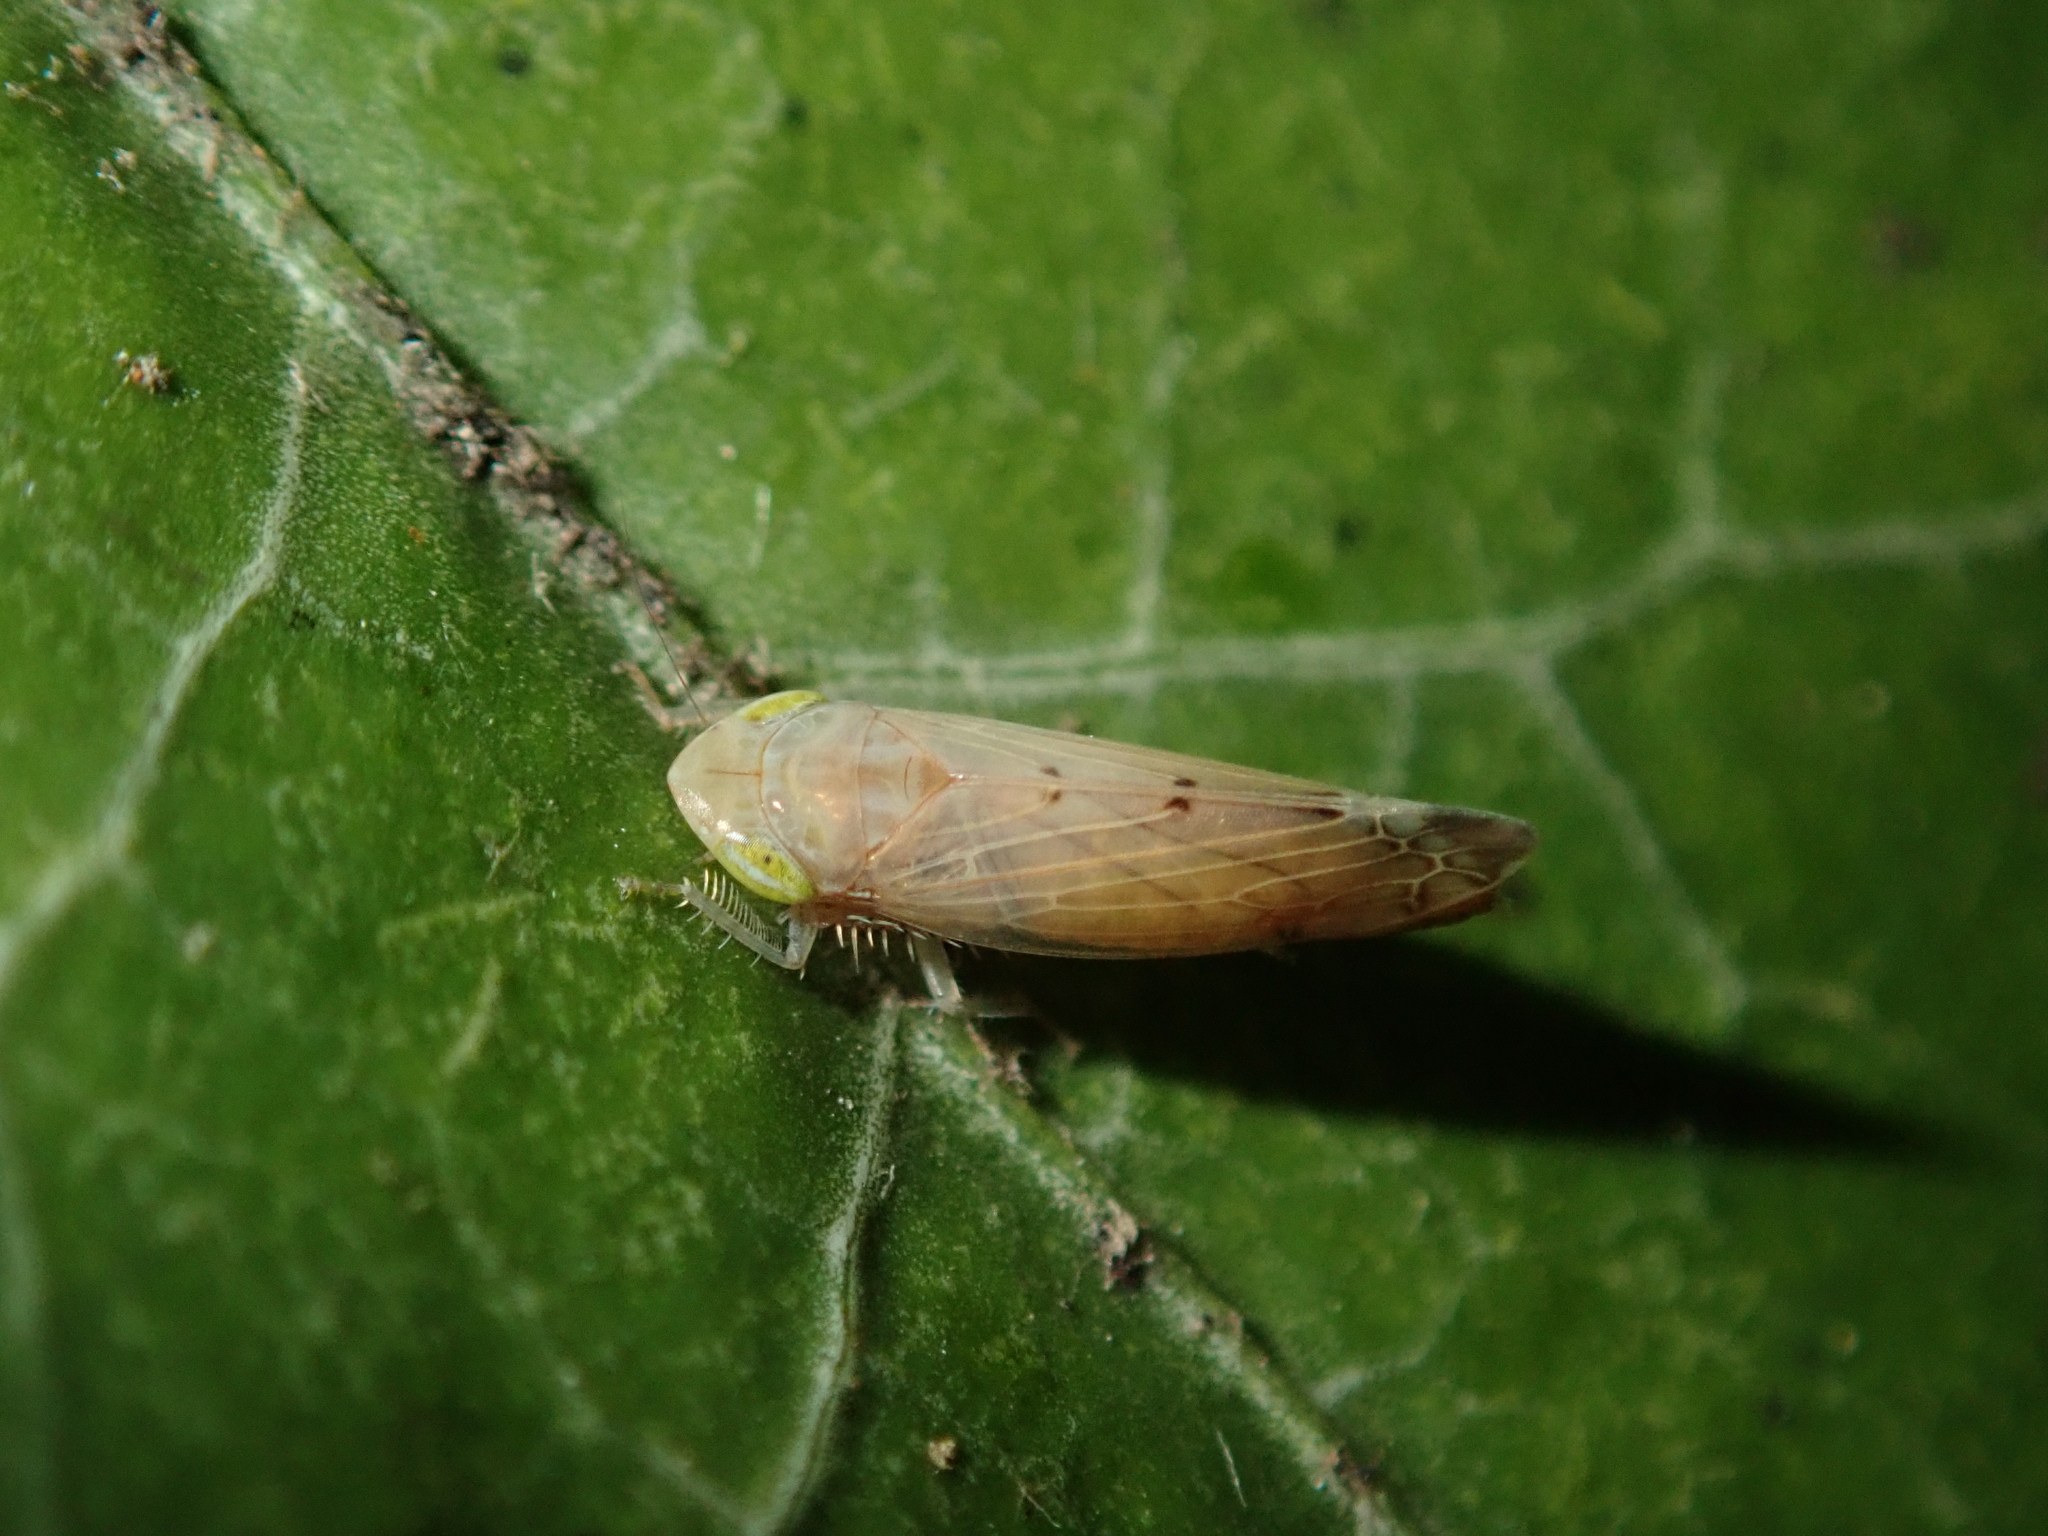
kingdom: Animalia
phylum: Arthropoda
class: Insecta
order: Hemiptera
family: Cicadellidae
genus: Synophropsis
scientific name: Synophropsis lauri
